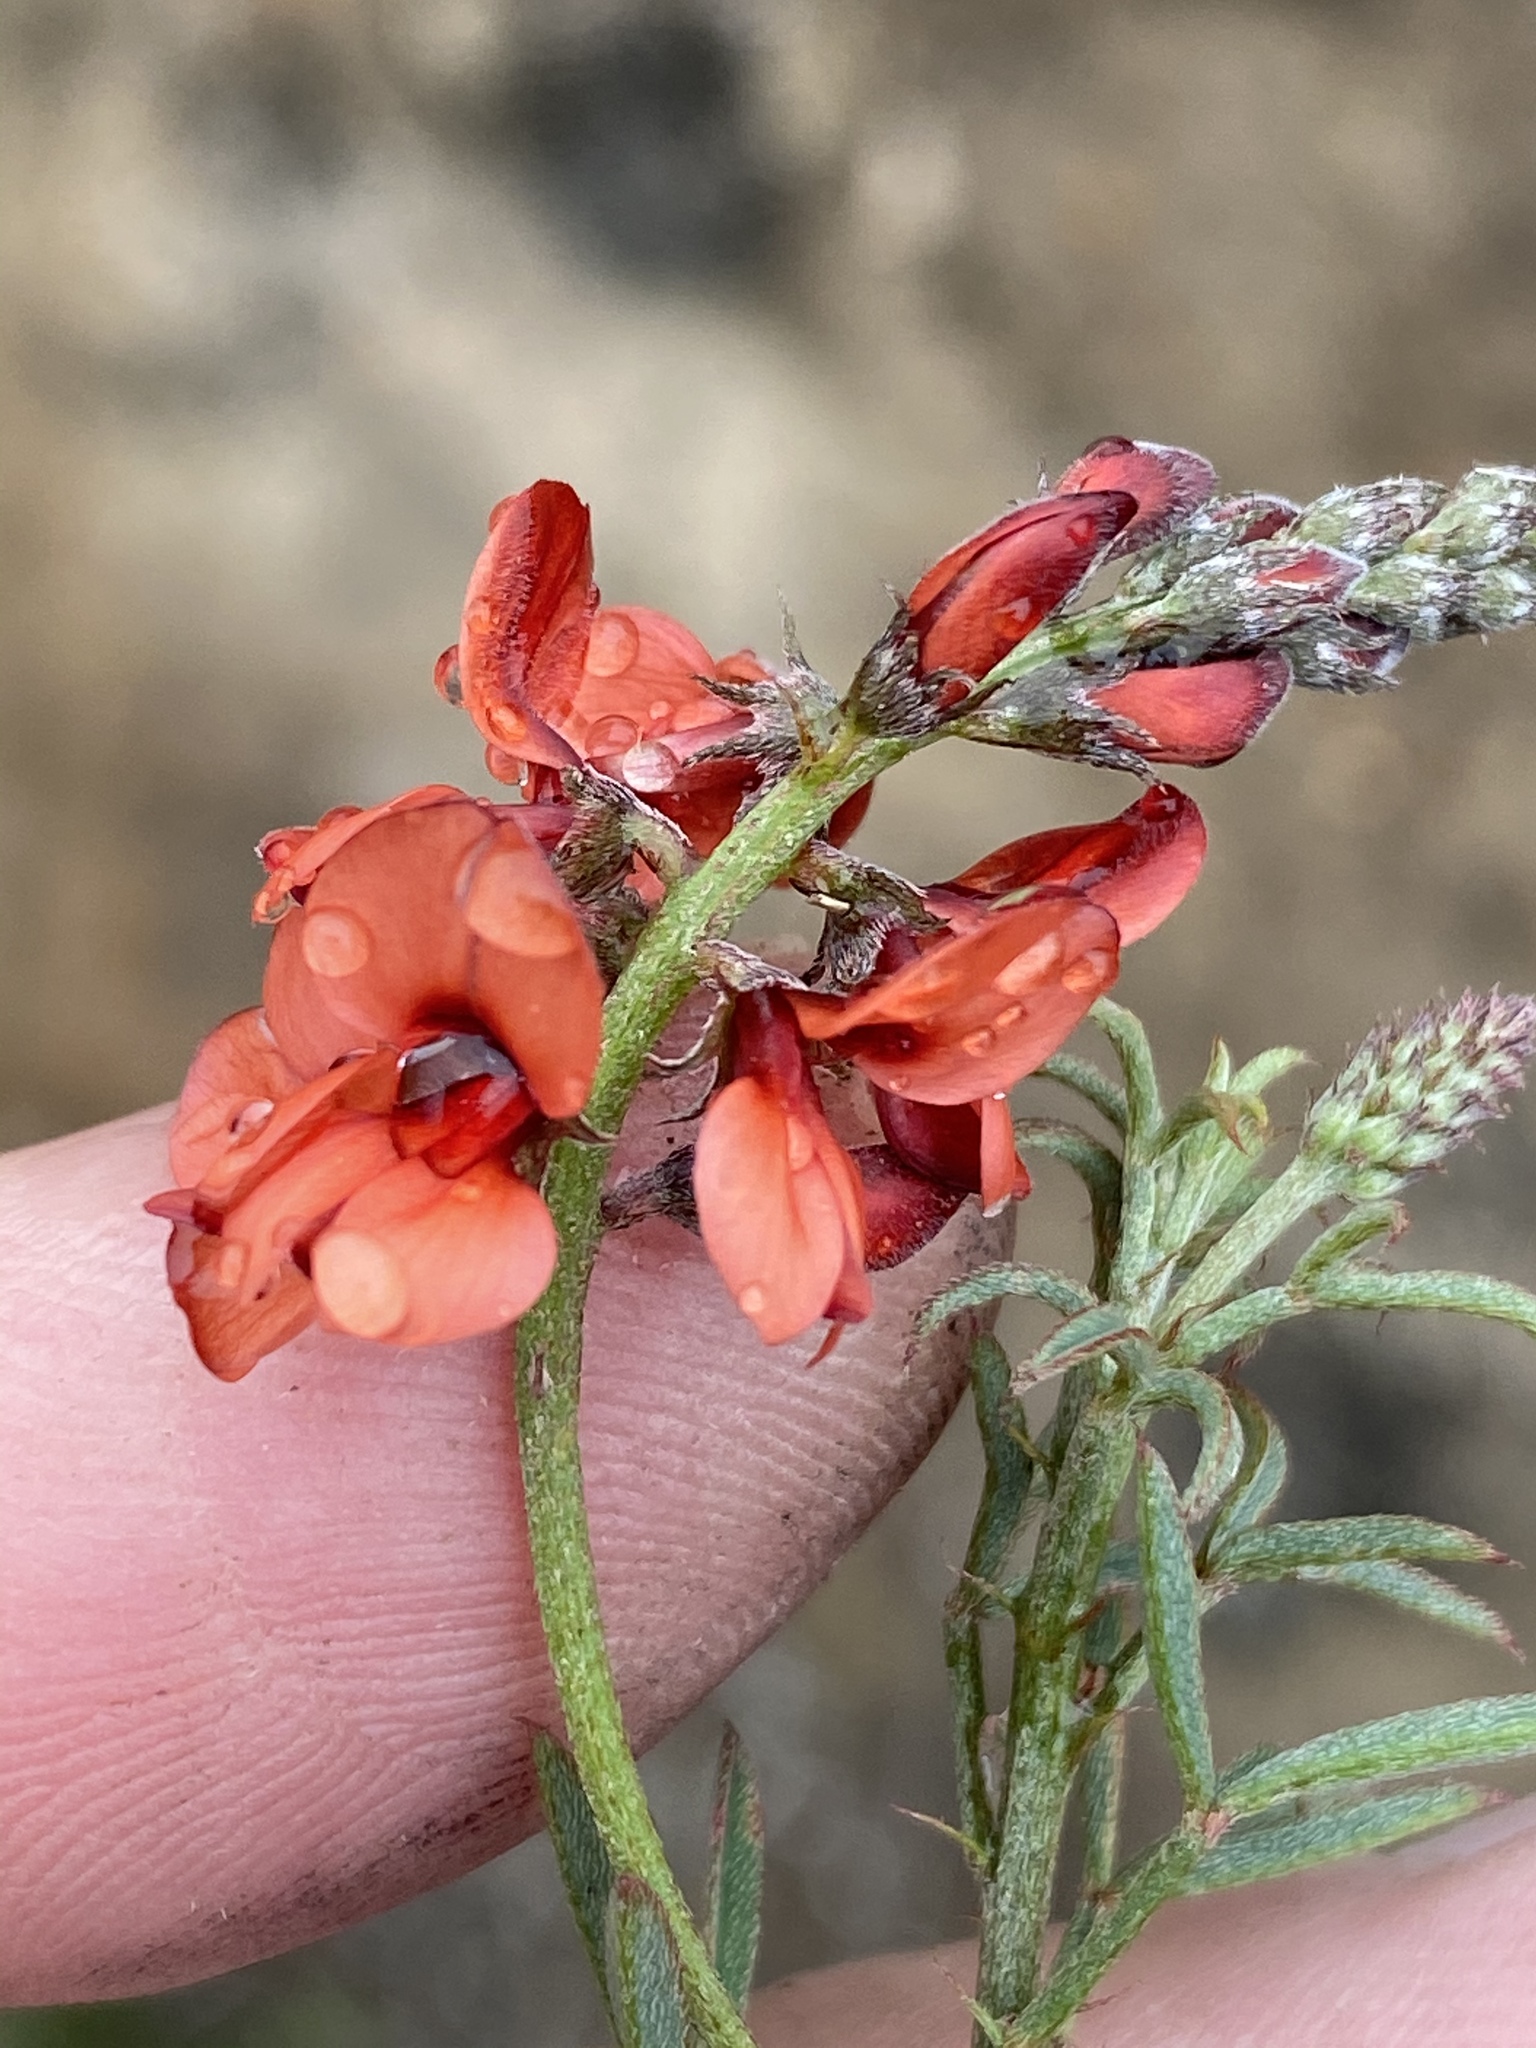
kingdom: Plantae
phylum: Tracheophyta
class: Magnoliopsida
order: Fabales
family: Fabaceae
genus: Indigofera
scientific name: Indigofera heterophylla
